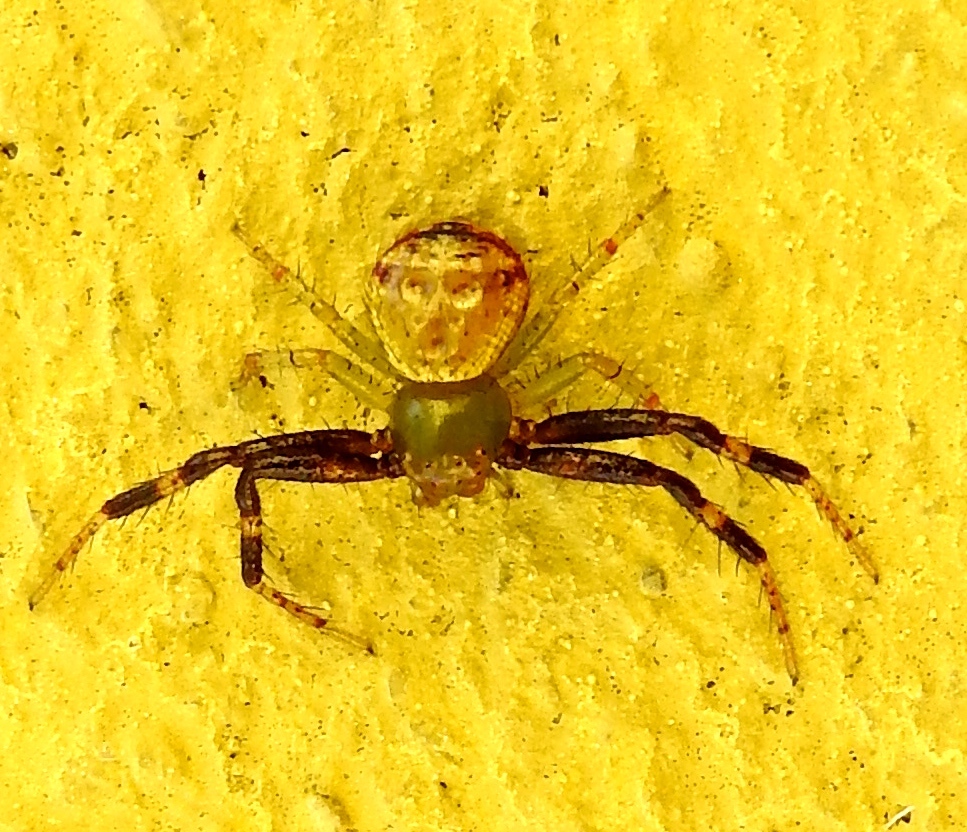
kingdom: Animalia
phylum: Arthropoda
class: Arachnida
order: Araneae
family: Thomisidae
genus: Synema
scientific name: Synema
